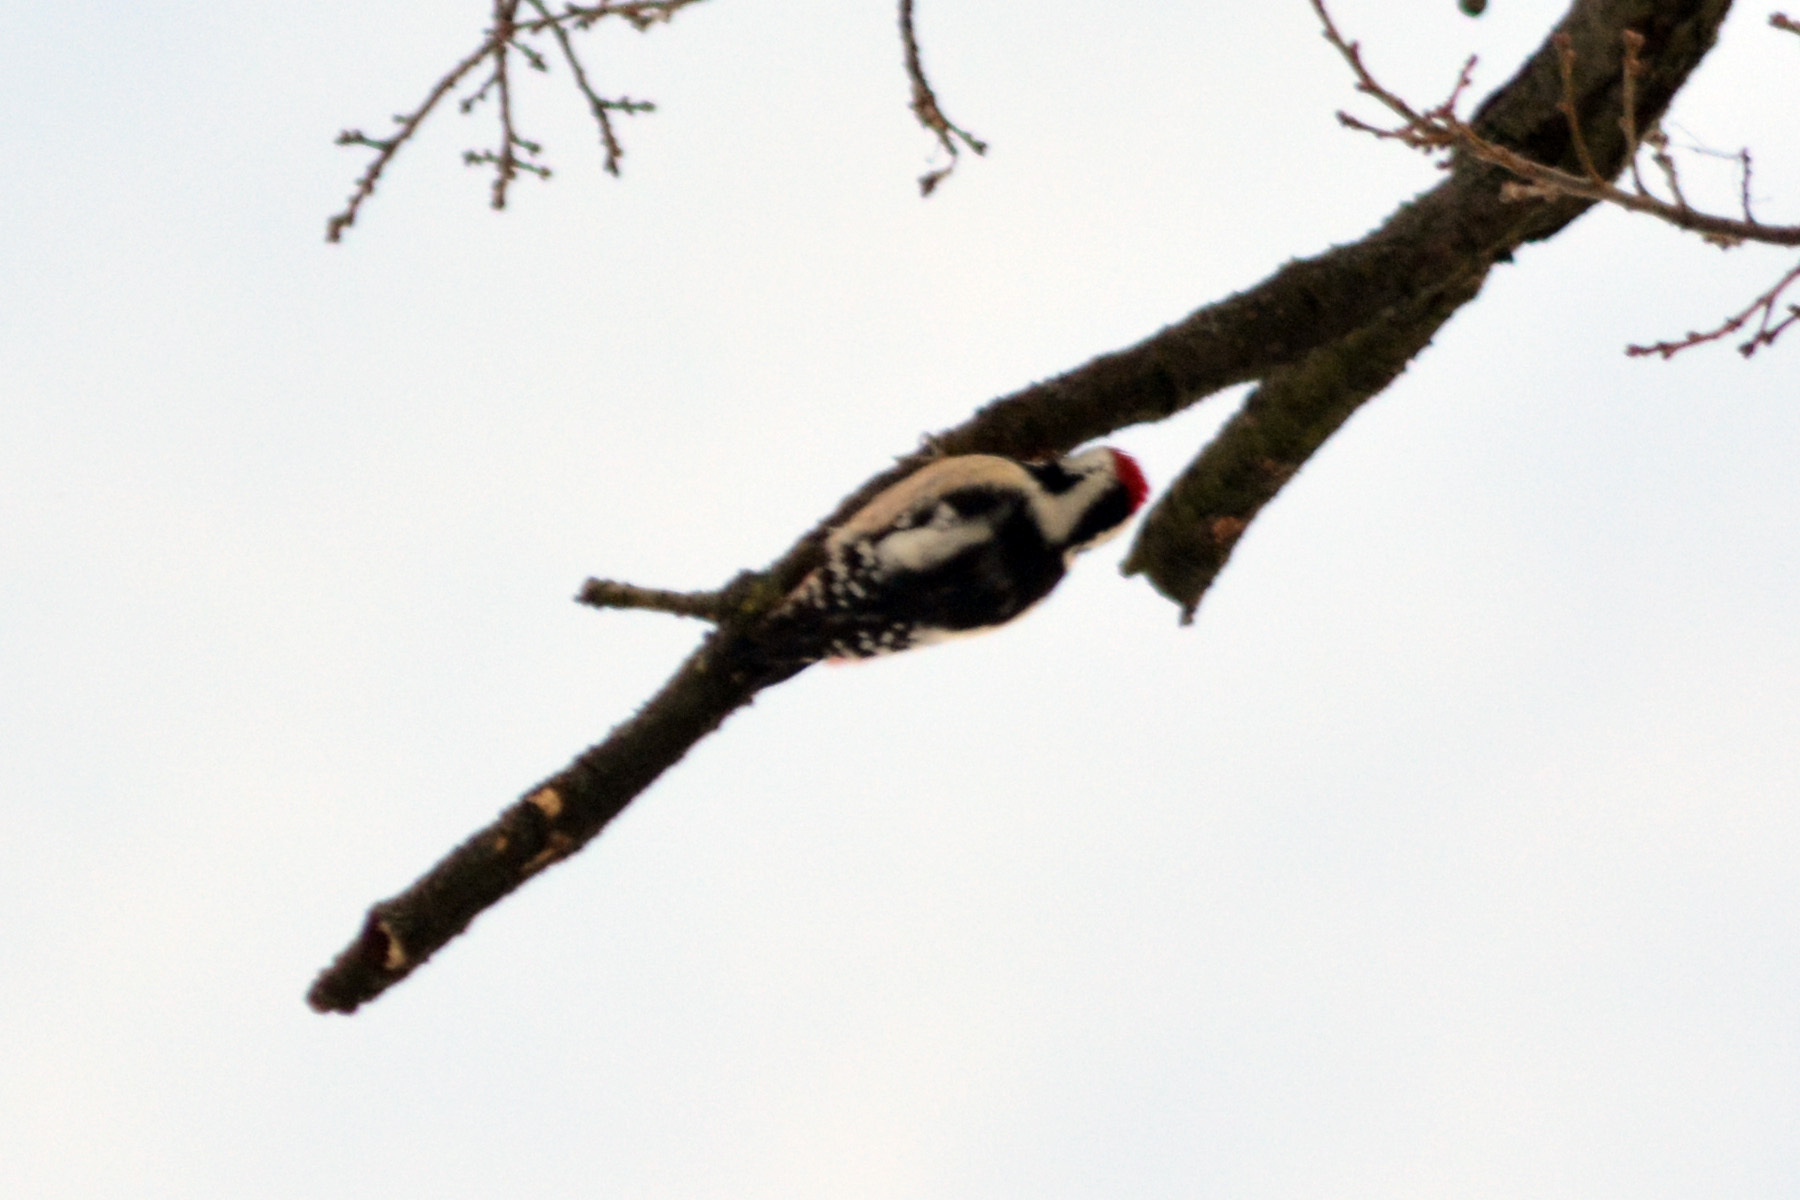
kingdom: Animalia
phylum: Chordata
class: Aves
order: Piciformes
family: Picidae
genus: Dendrocoptes
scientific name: Dendrocoptes medius
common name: Middle spotted woodpecker
